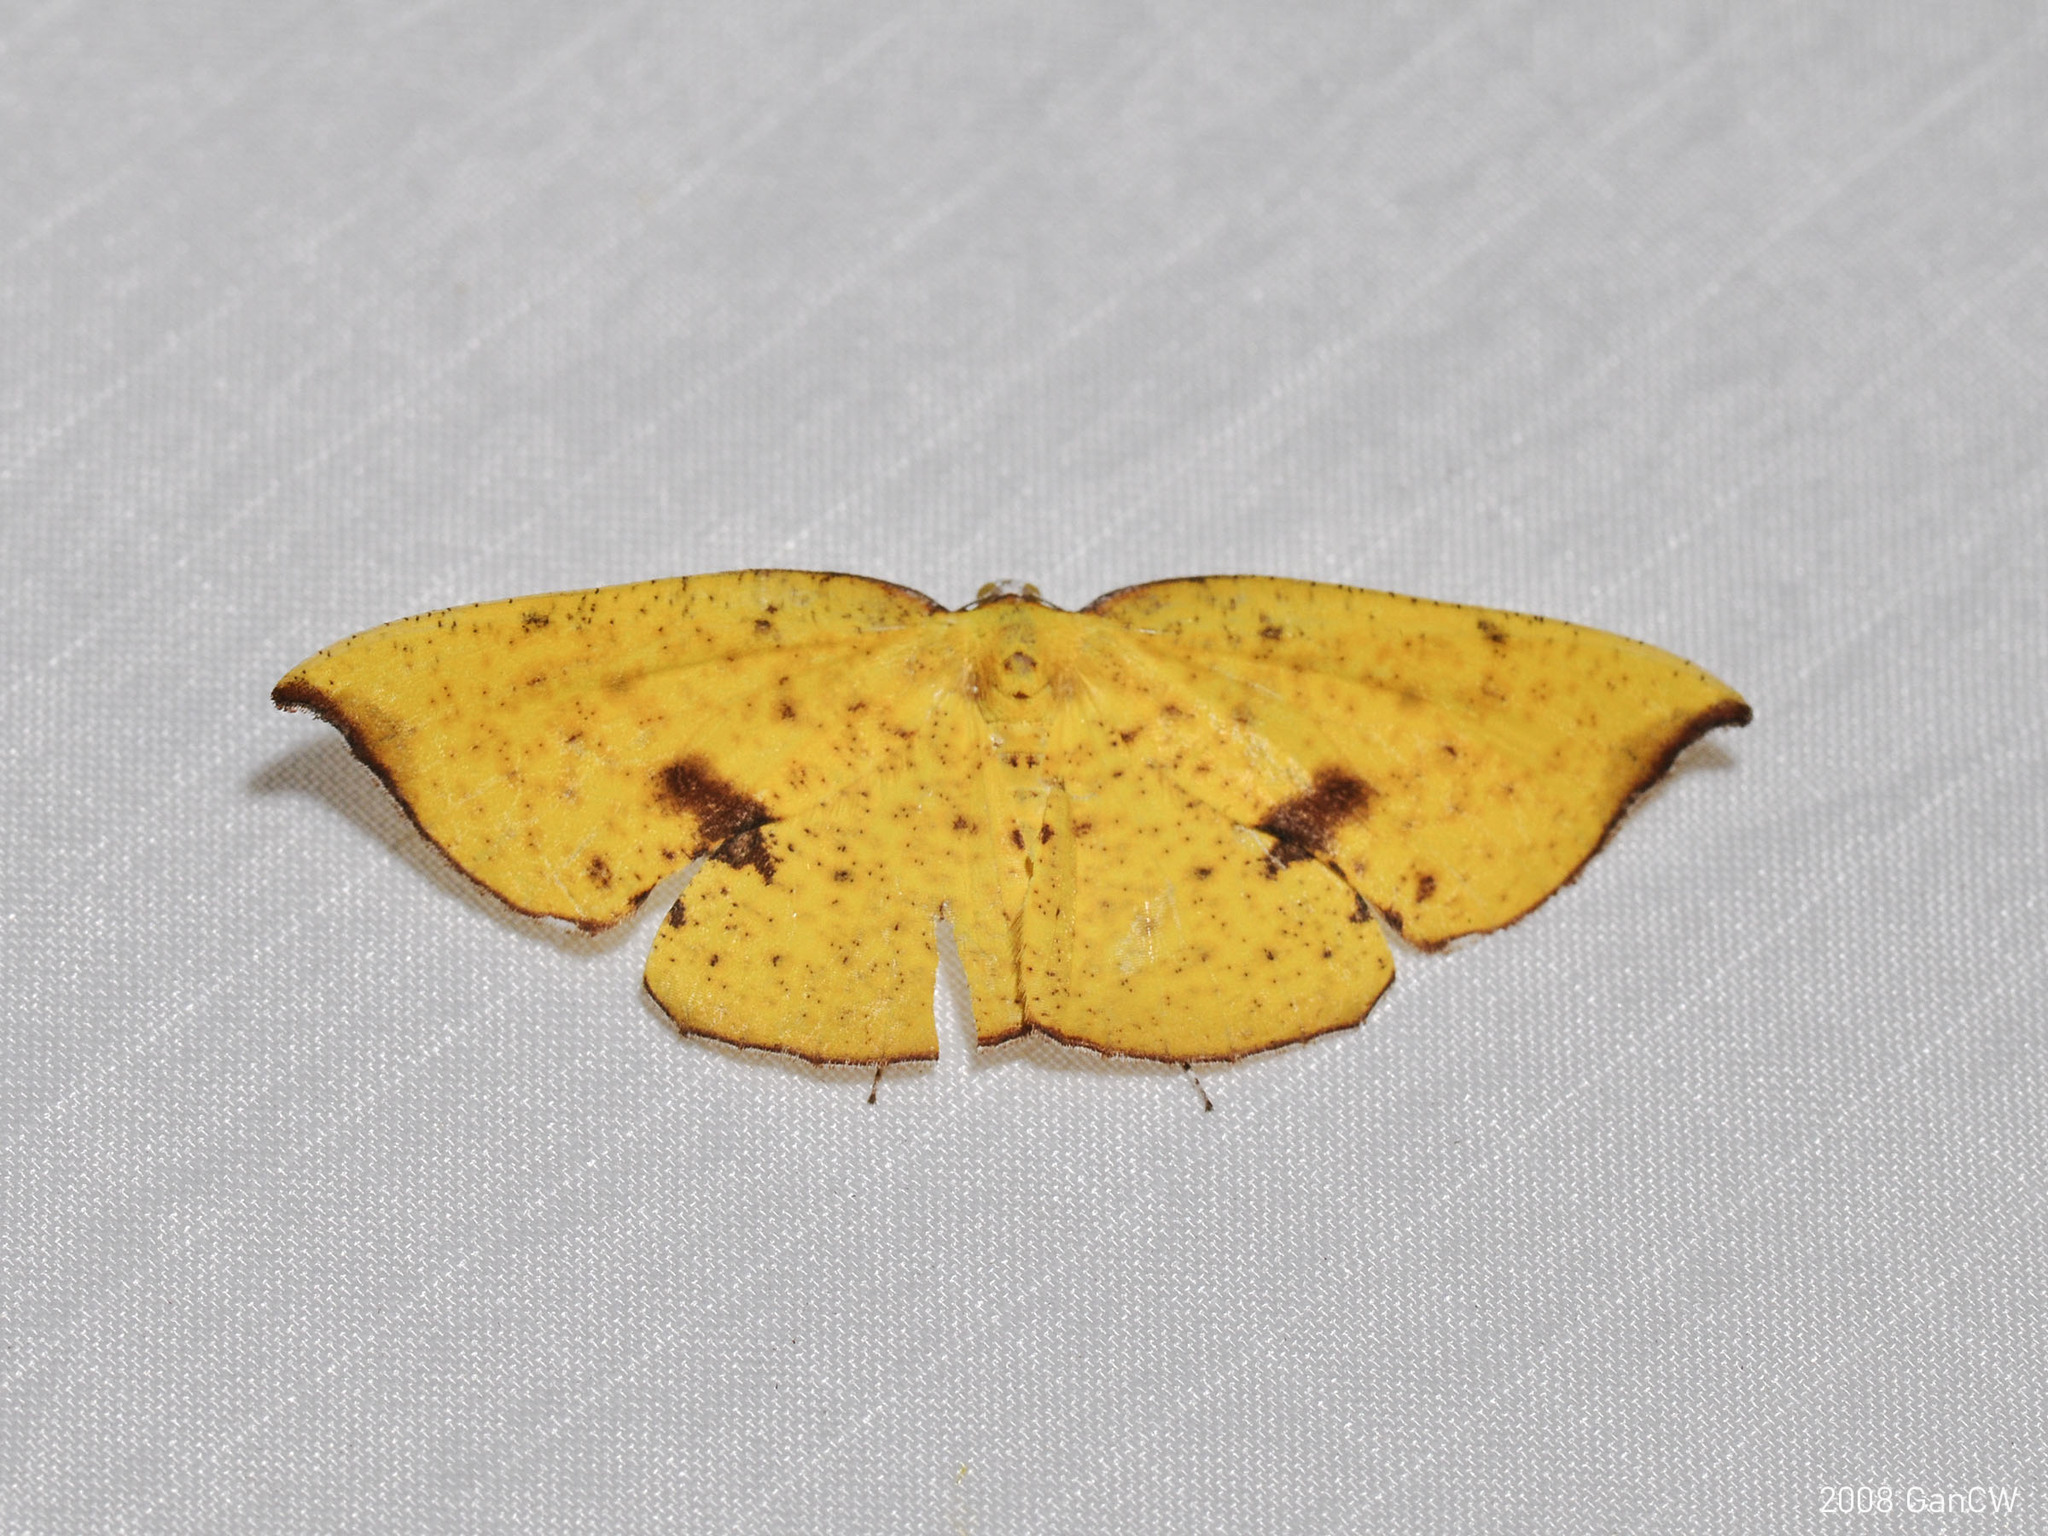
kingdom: Animalia
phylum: Arthropoda
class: Insecta
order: Lepidoptera
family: Geometridae
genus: Corymica
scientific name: Corymica fulvimaculata
